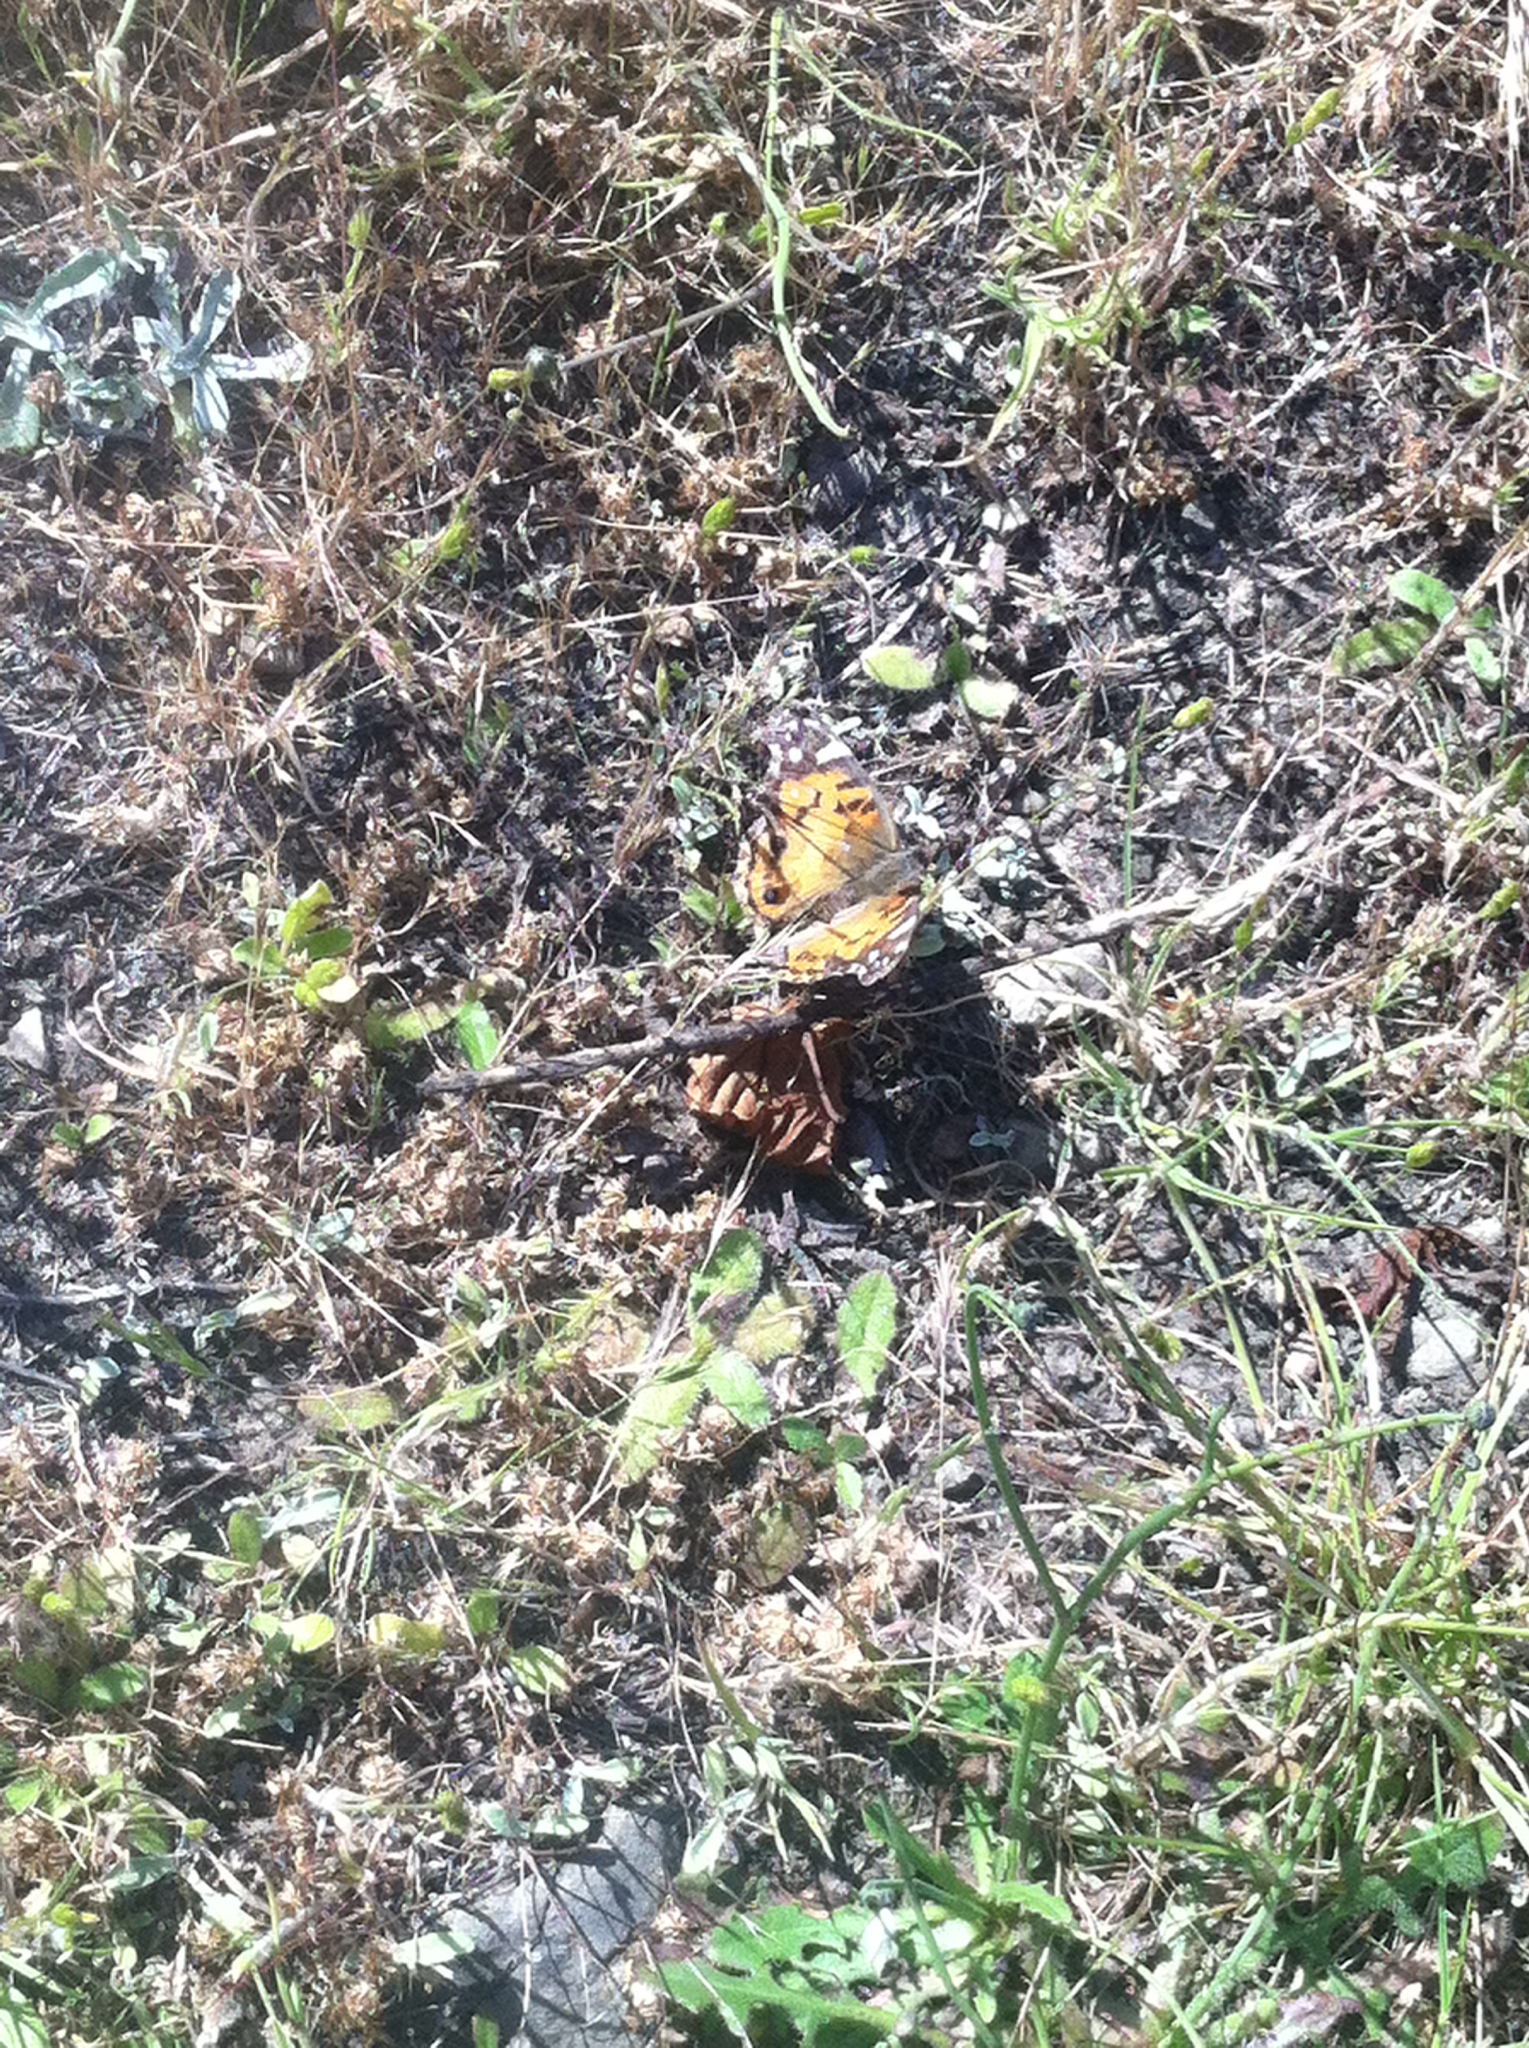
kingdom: Animalia
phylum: Arthropoda
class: Insecta
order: Lepidoptera
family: Nymphalidae
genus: Vanessa
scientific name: Vanessa virginiensis
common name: American lady
